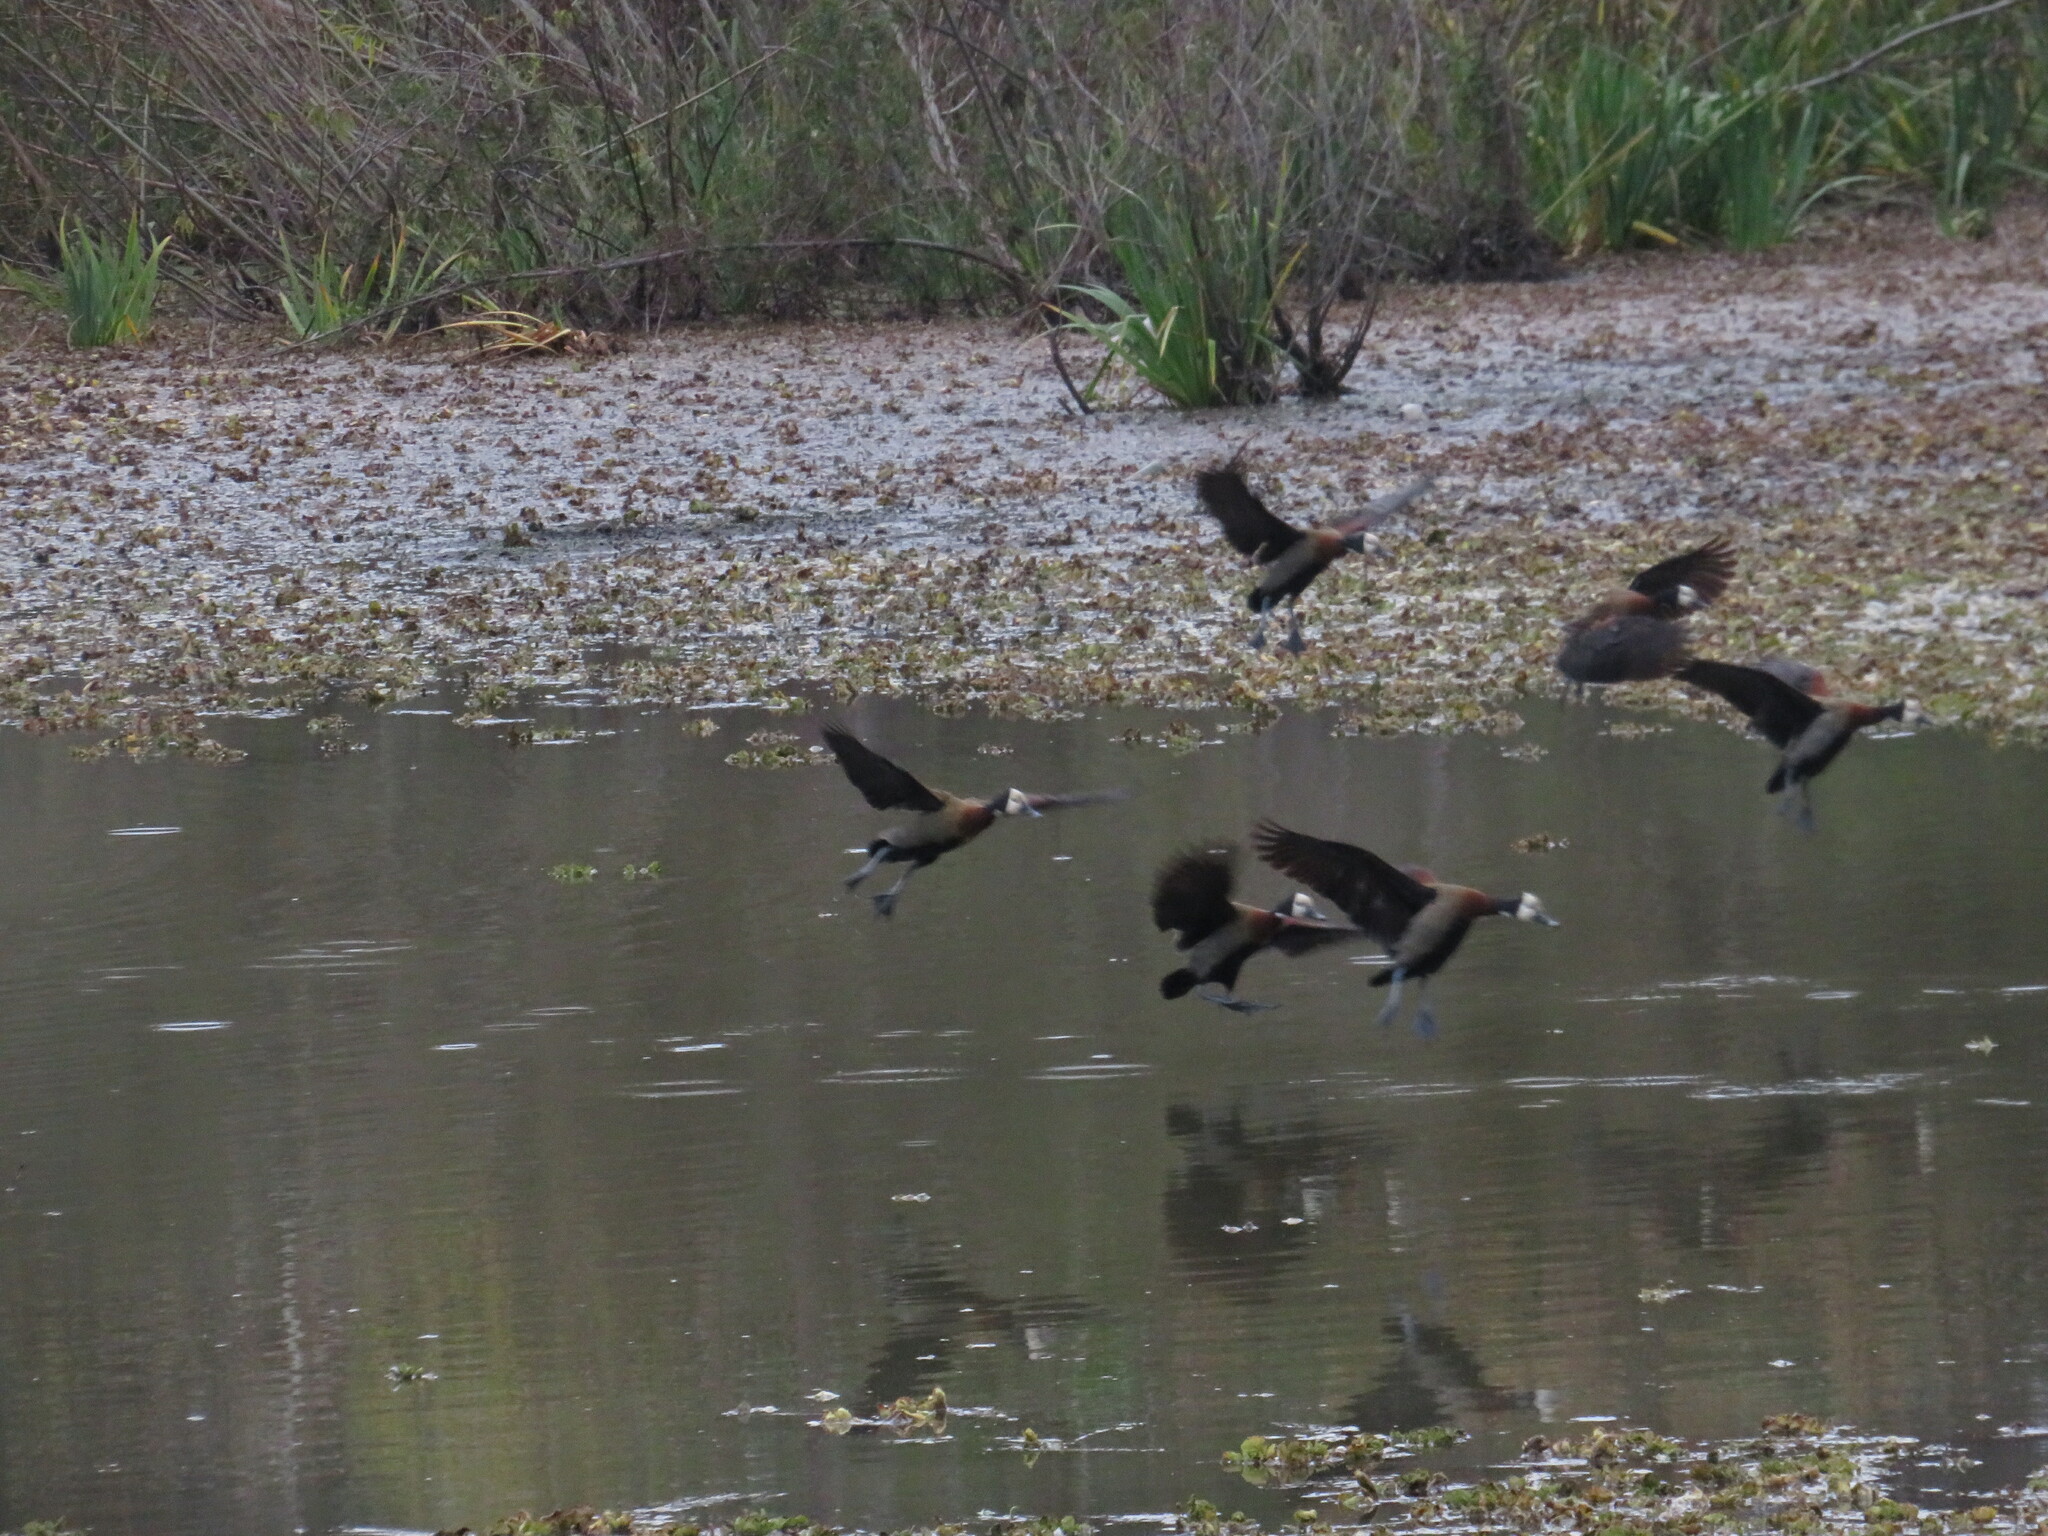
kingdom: Animalia
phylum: Chordata
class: Aves
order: Anseriformes
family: Anatidae
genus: Dendrocygna
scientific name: Dendrocygna viduata
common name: White-faced whistling duck
